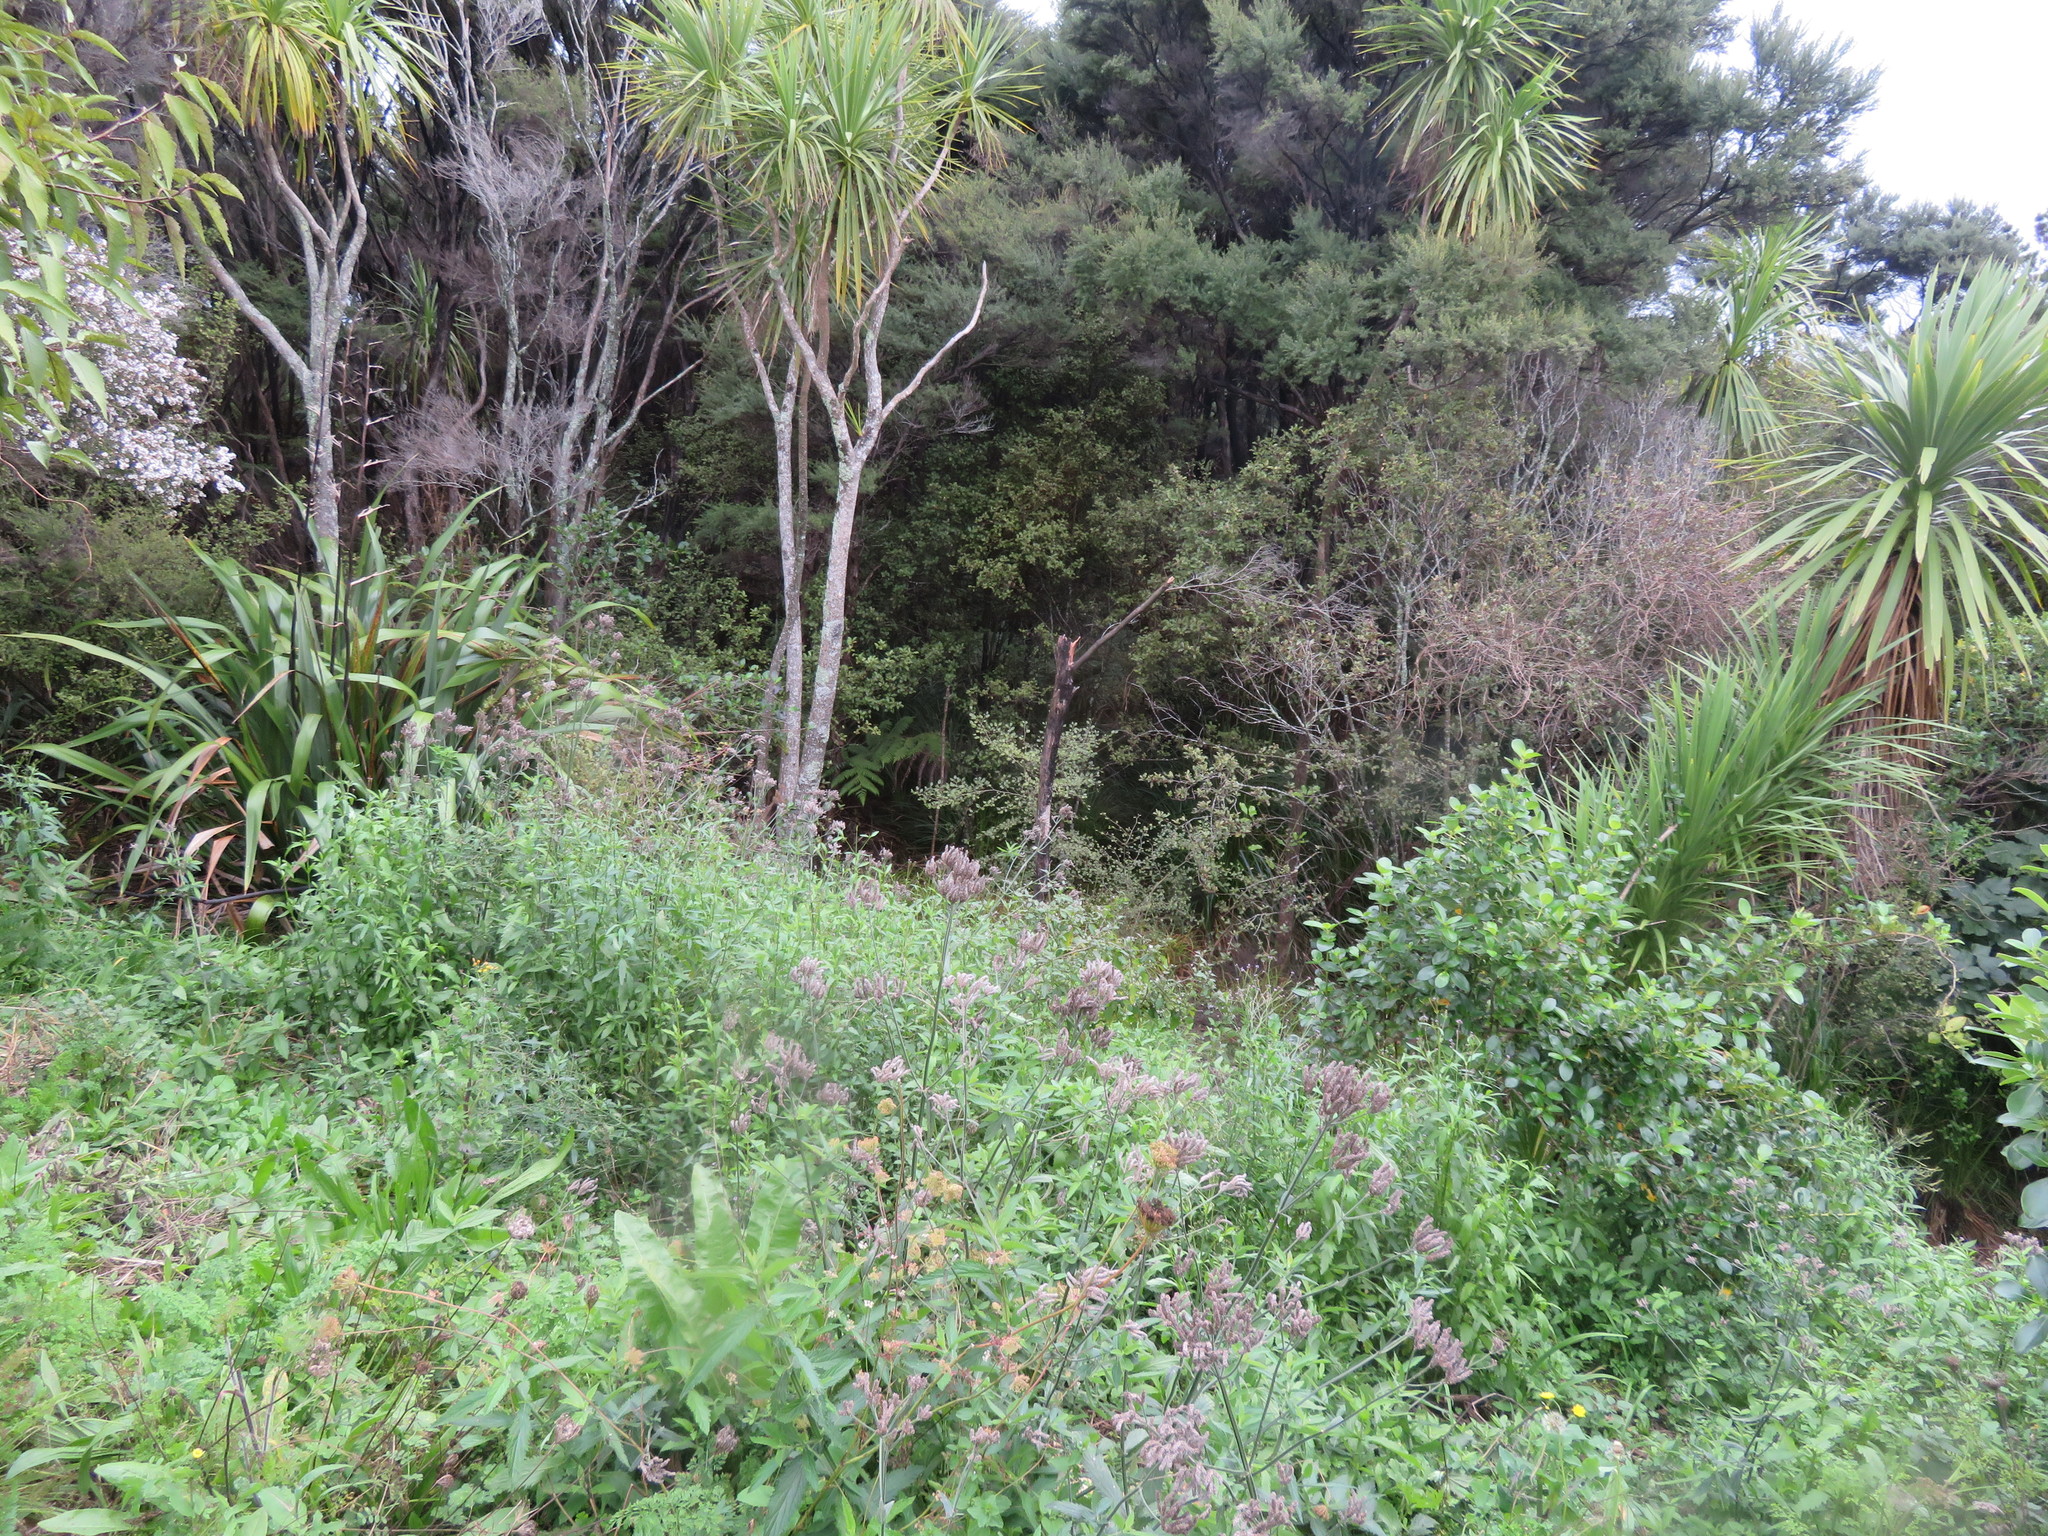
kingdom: Plantae
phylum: Tracheophyta
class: Magnoliopsida
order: Lamiales
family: Verbenaceae
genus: Verbena
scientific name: Verbena incompta
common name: Purpletop vervain
